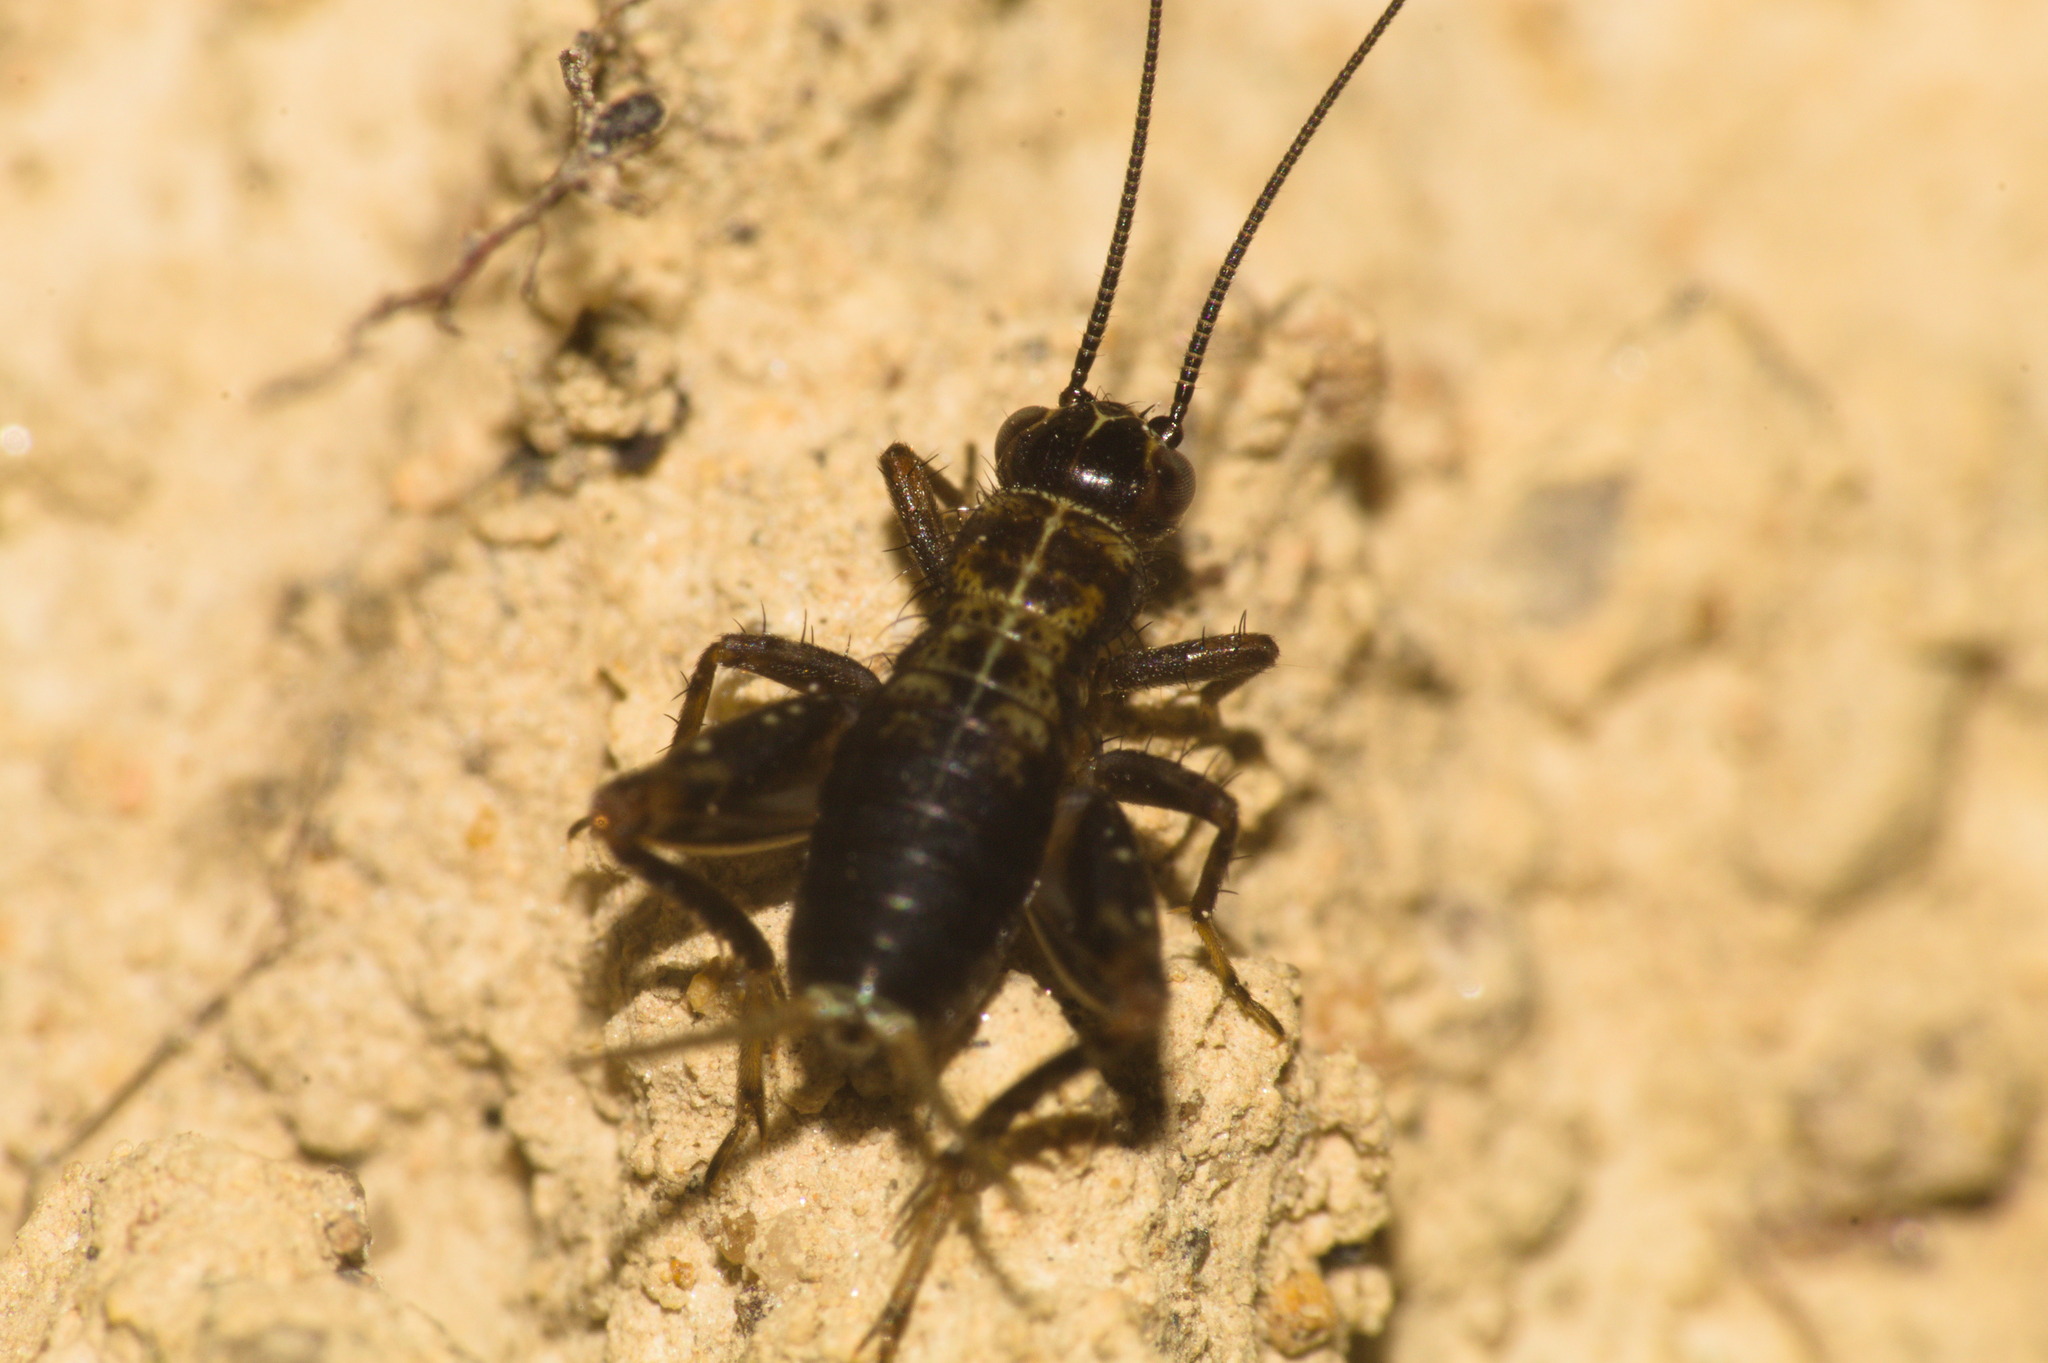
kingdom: Animalia
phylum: Arthropoda
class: Insecta
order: Orthoptera
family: Trigonidiidae
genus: Nemobius
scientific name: Nemobius sylvestris
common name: Wood-cricket
